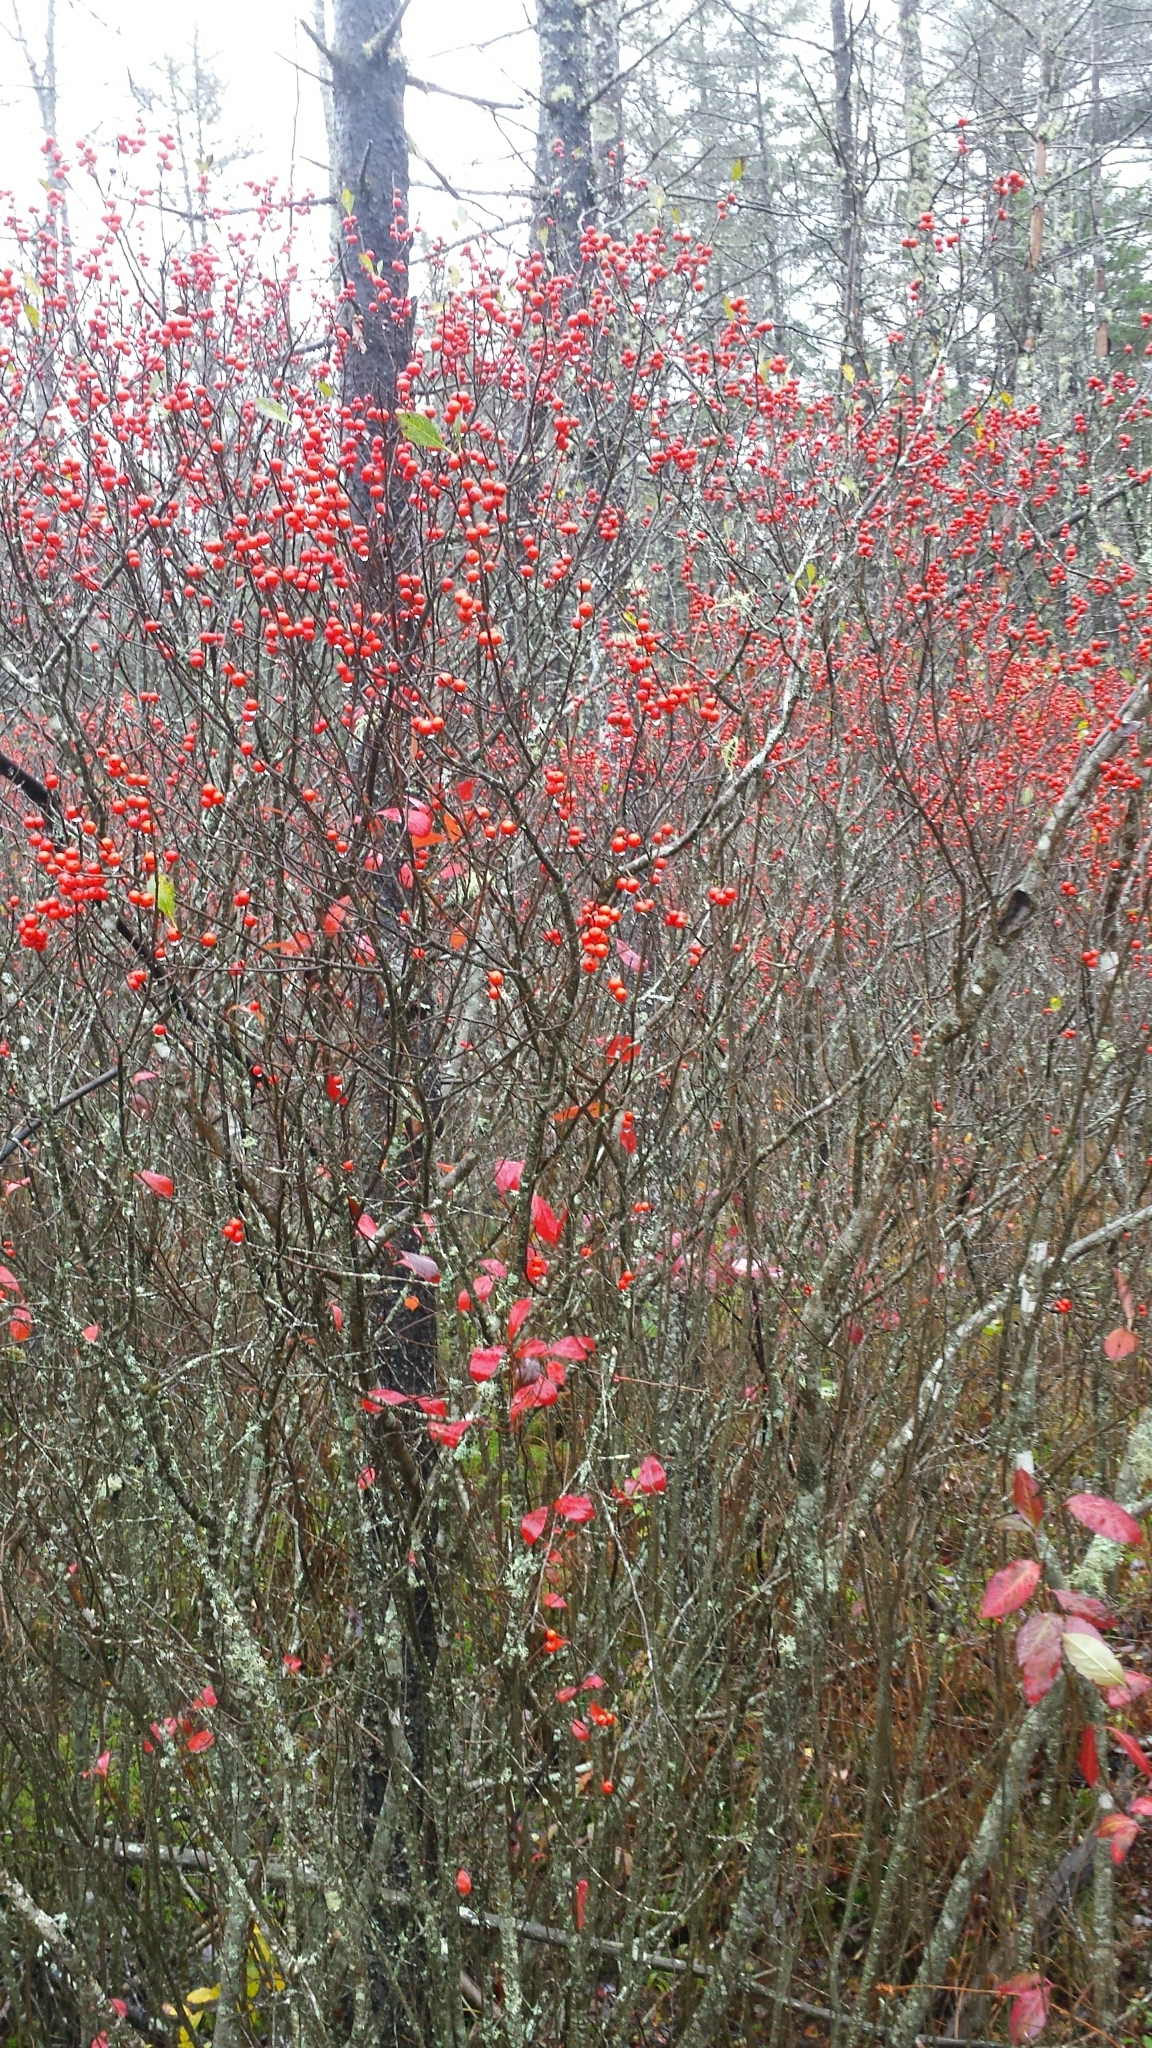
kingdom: Plantae
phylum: Tracheophyta
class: Magnoliopsida
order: Aquifoliales
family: Aquifoliaceae
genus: Ilex
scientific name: Ilex verticillata
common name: Virginia winterberry
